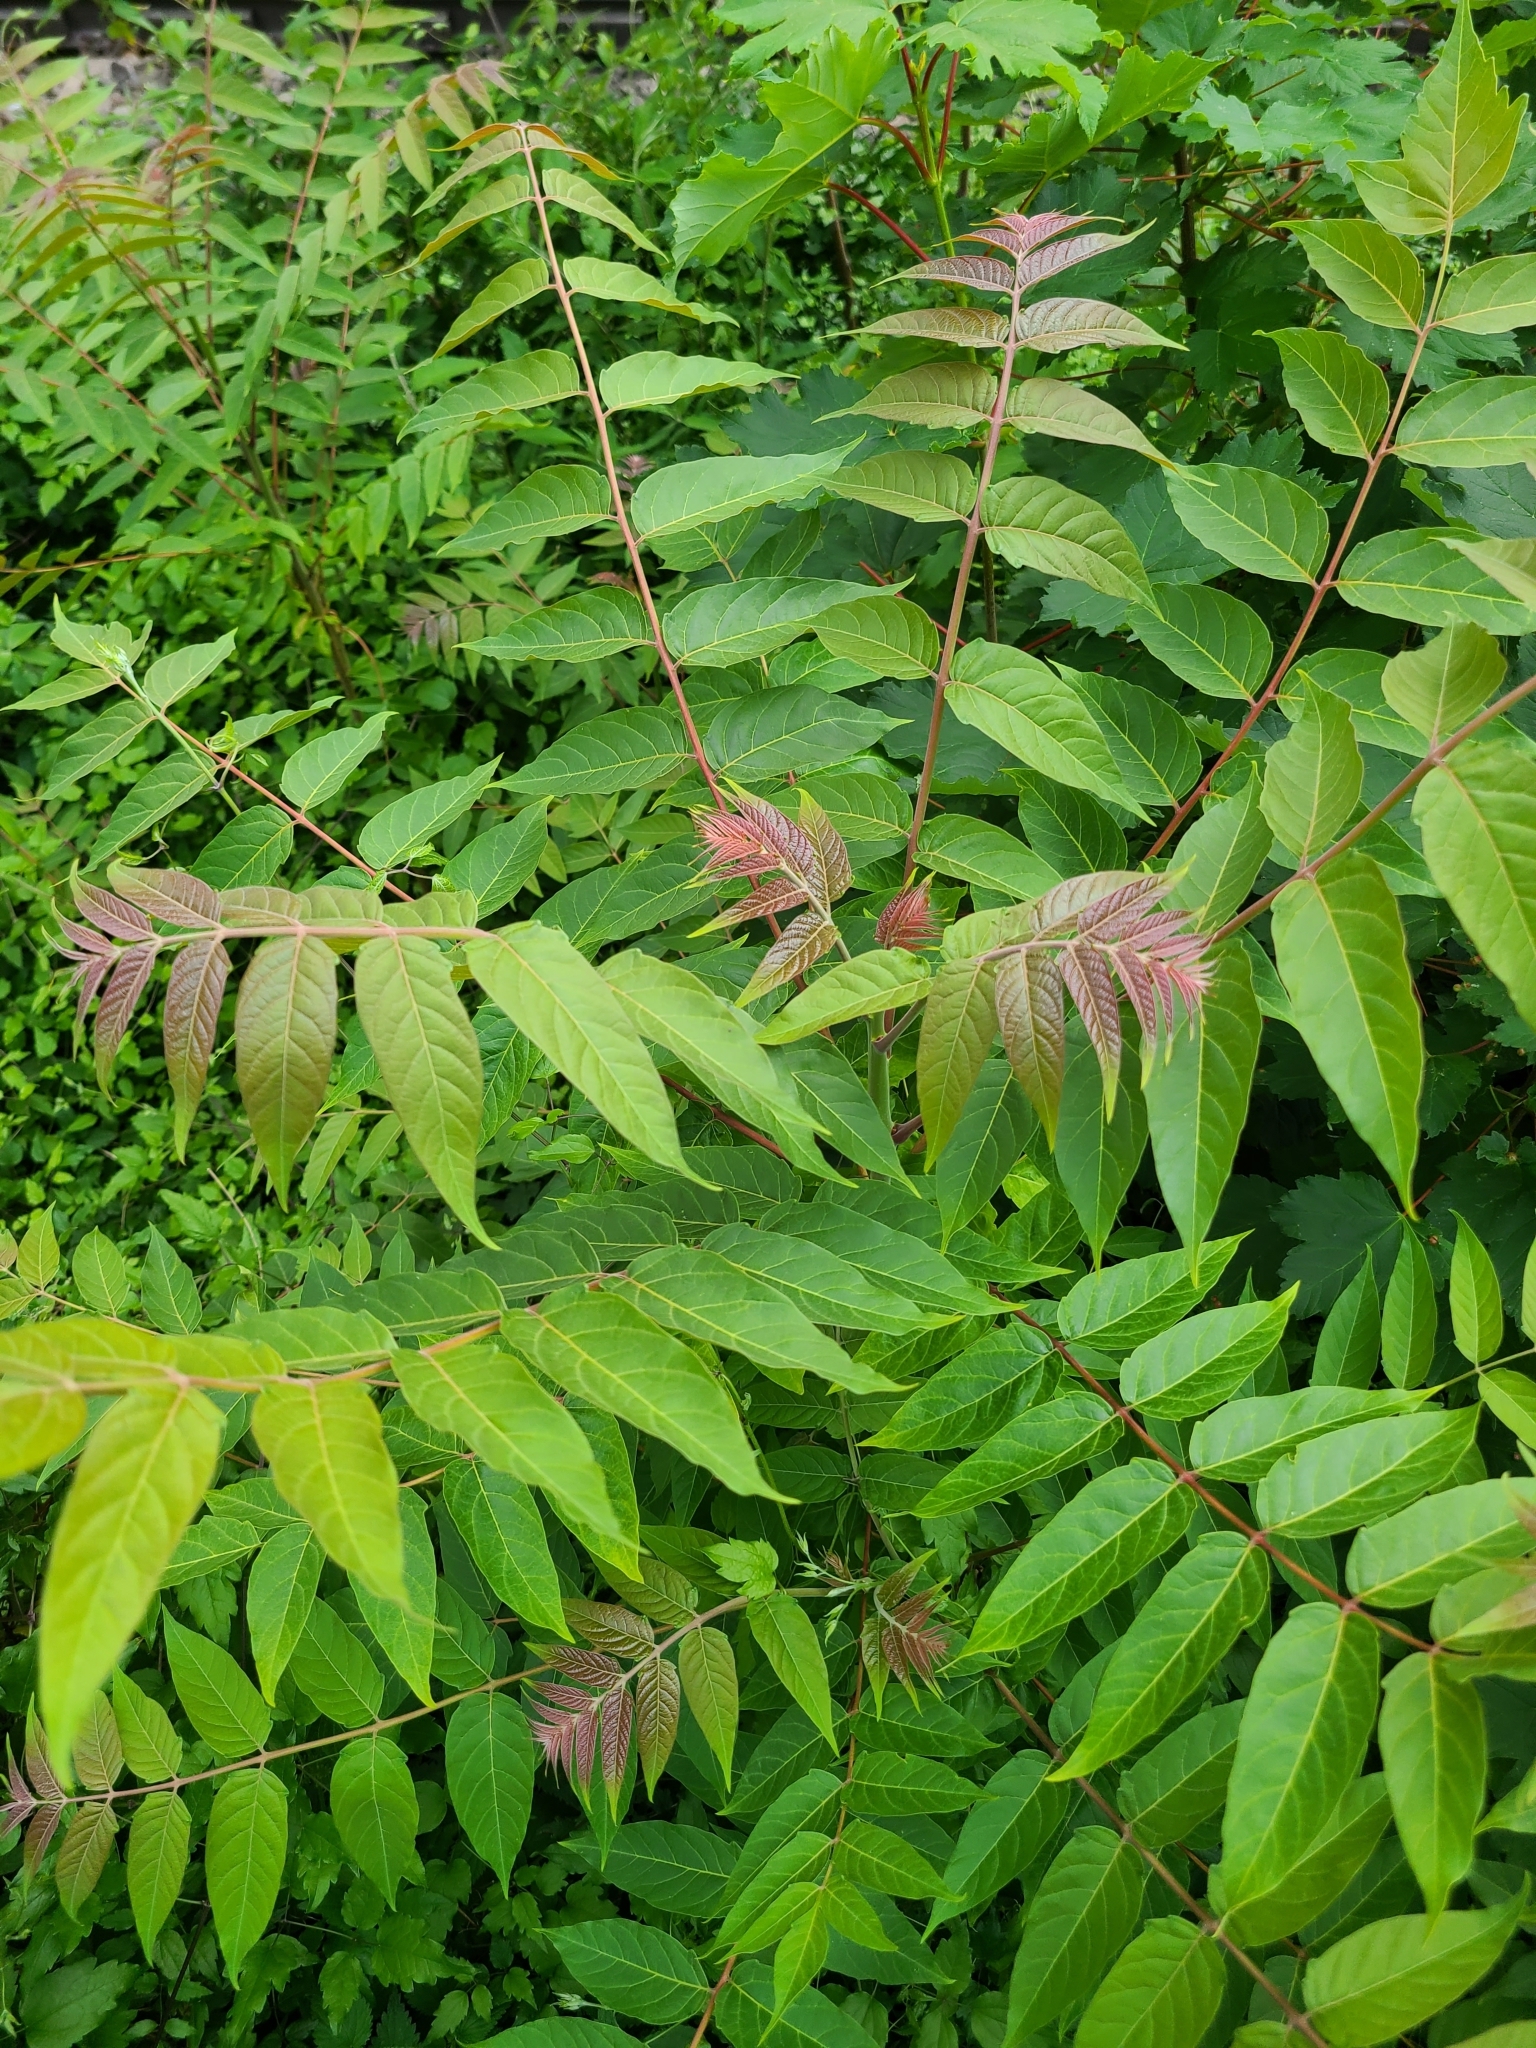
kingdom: Plantae
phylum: Tracheophyta
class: Magnoliopsida
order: Sapindales
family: Simaroubaceae
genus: Ailanthus
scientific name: Ailanthus altissima
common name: Tree-of-heaven
